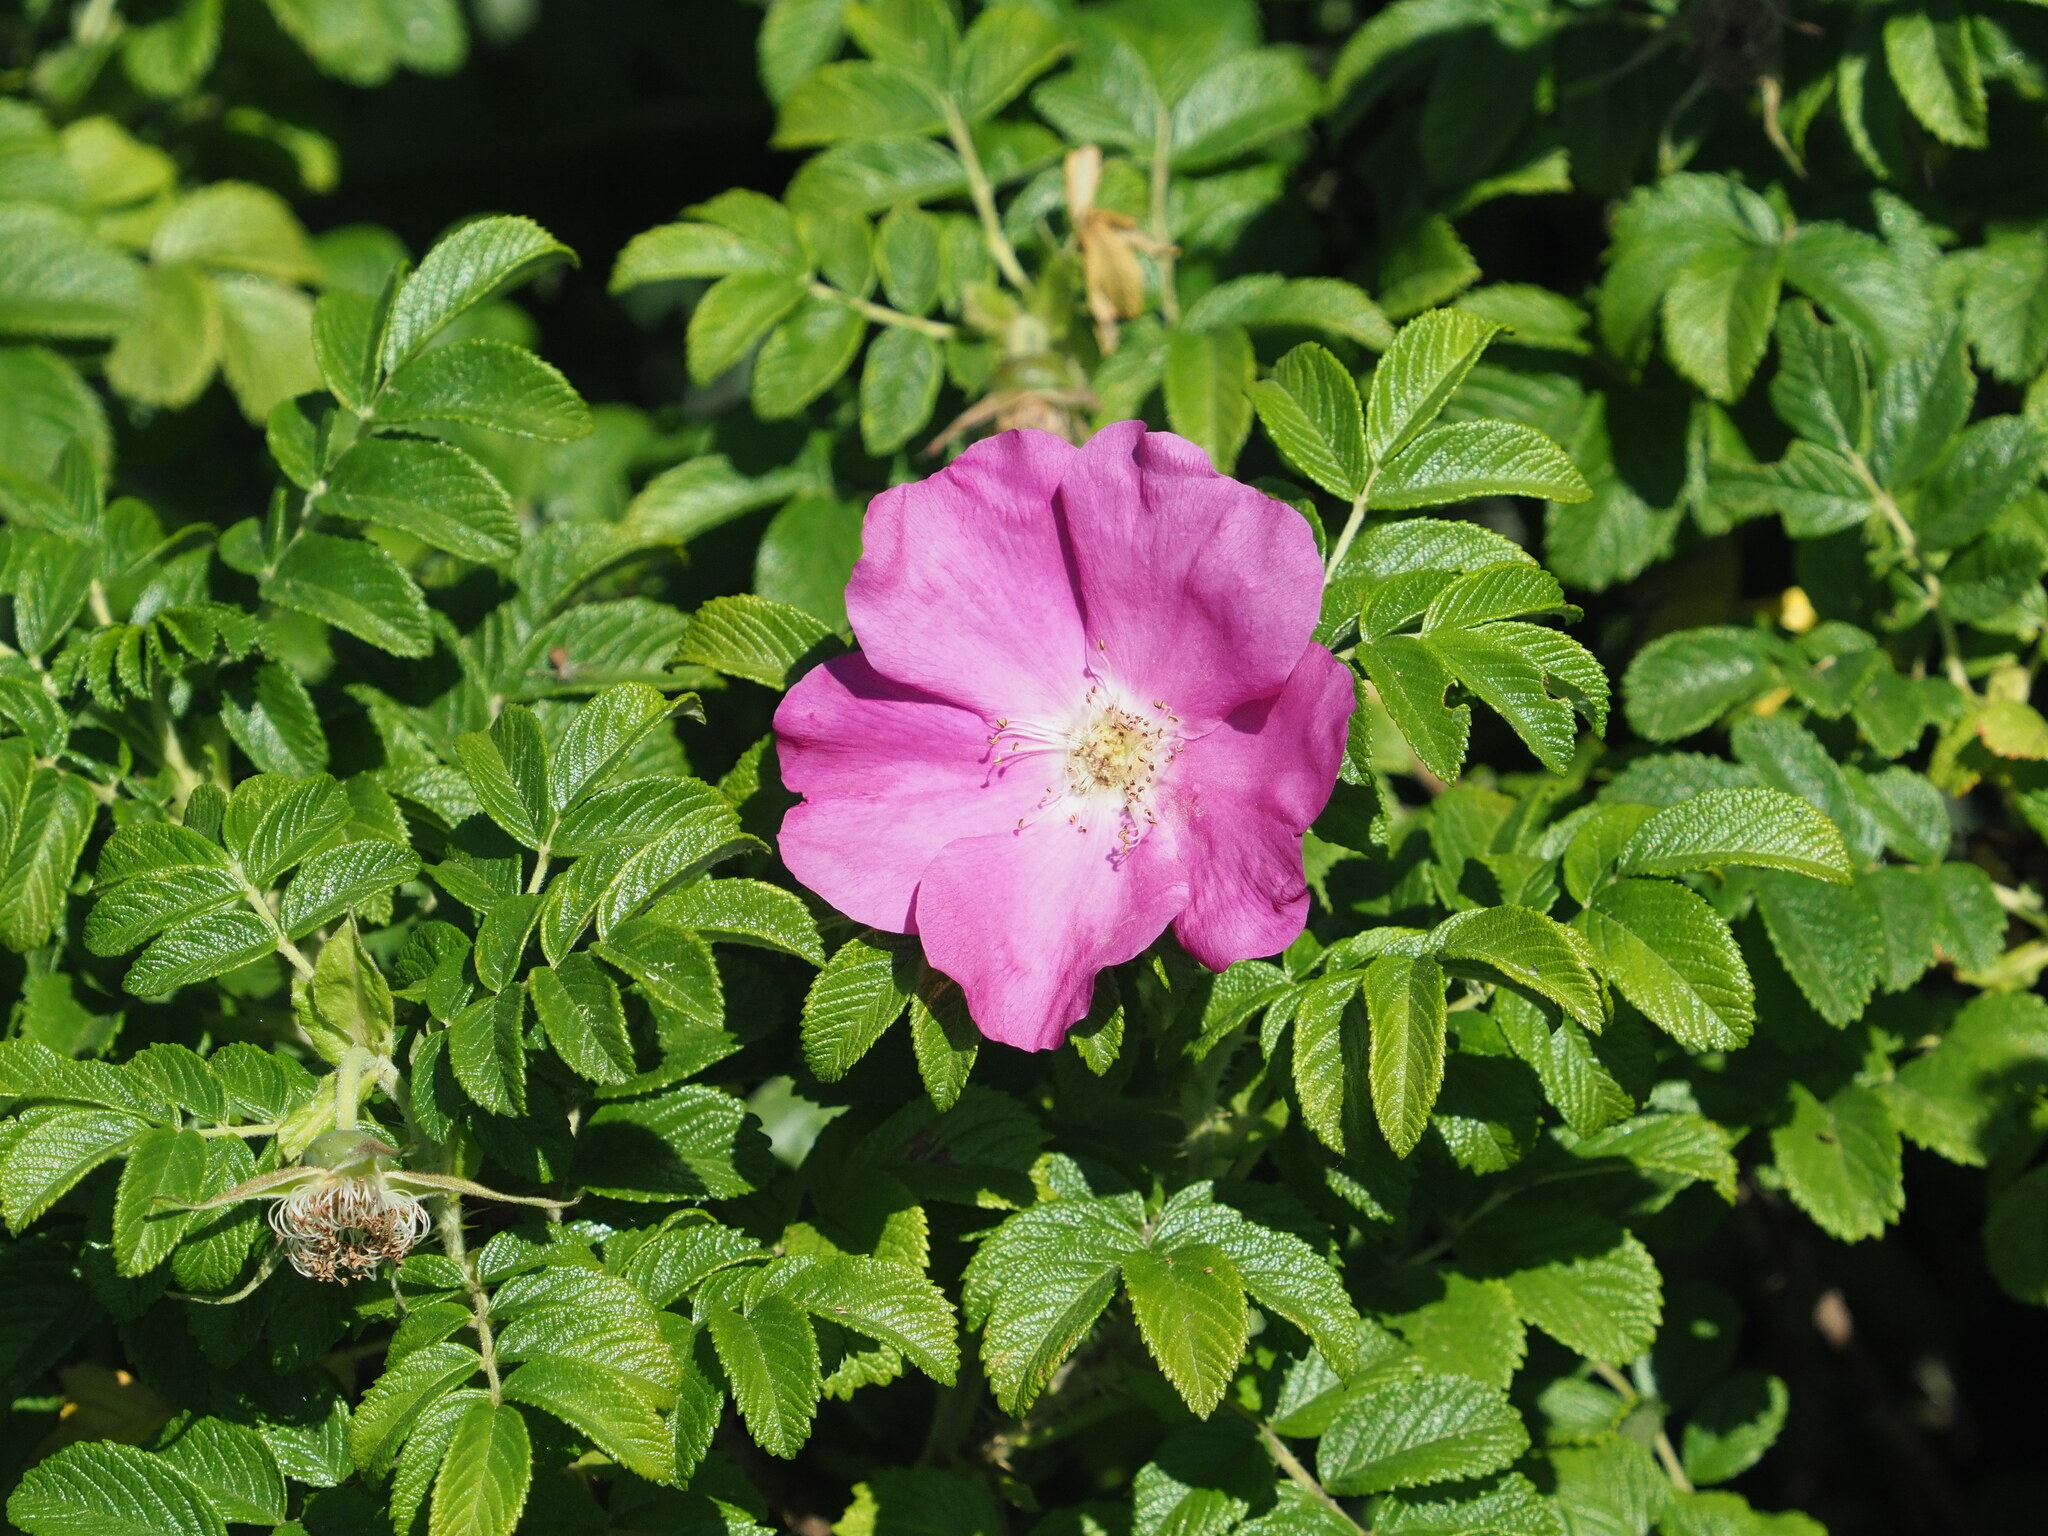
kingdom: Plantae
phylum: Tracheophyta
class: Magnoliopsida
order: Rosales
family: Rosaceae
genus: Rosa
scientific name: Rosa rugosa
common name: Japanese rose
